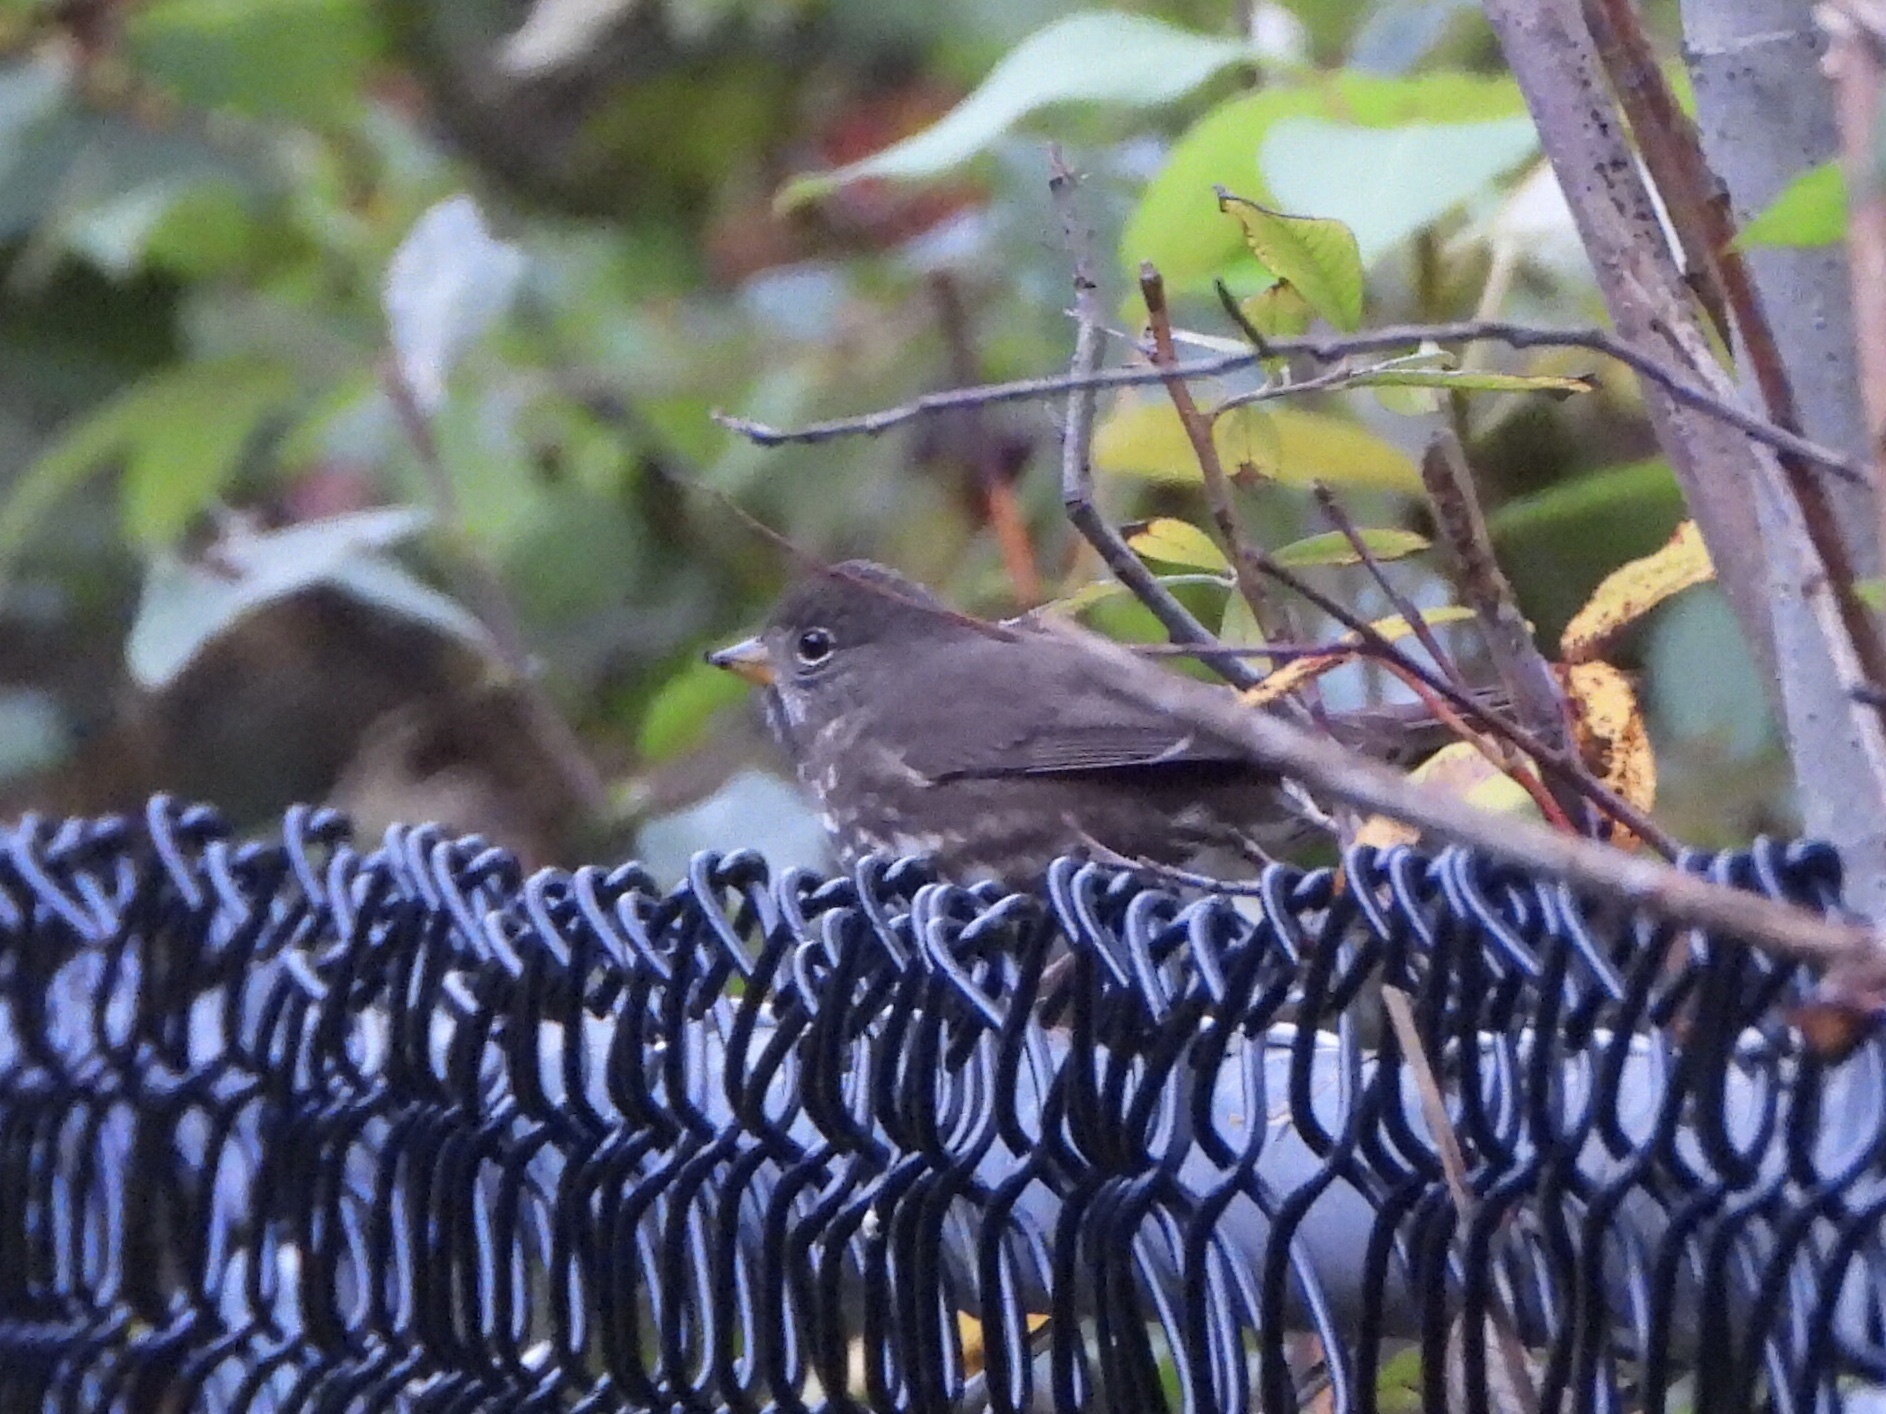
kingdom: Animalia
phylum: Chordata
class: Aves
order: Passeriformes
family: Passerellidae
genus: Passerella
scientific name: Passerella iliaca
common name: Fox sparrow
